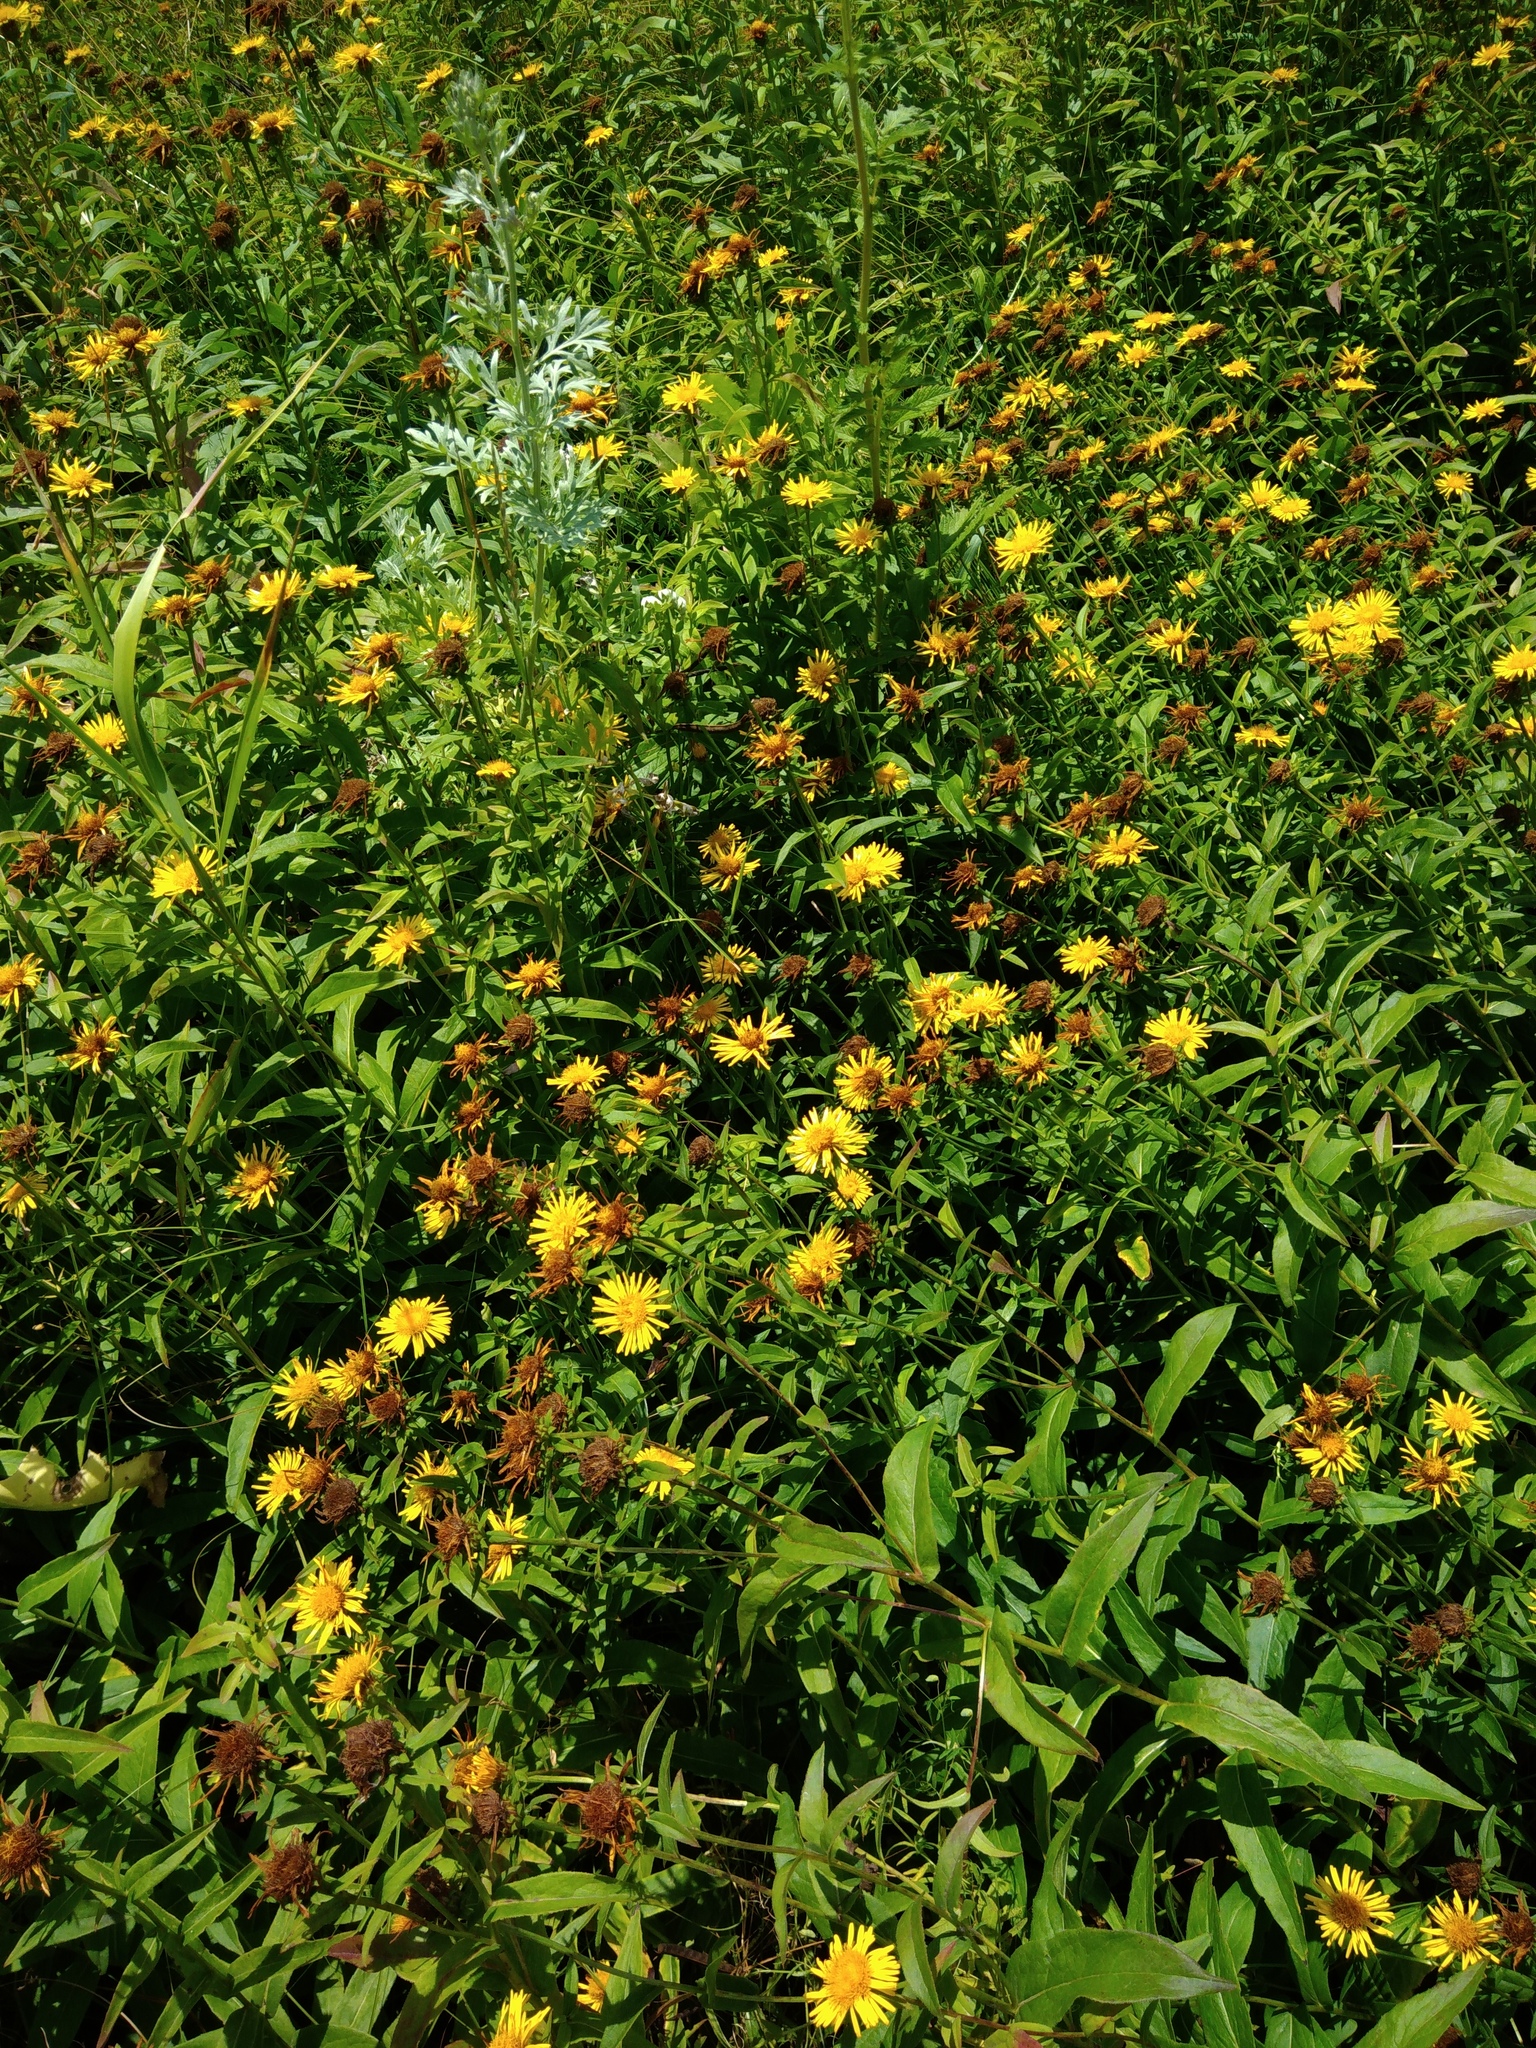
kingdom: Plantae
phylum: Tracheophyta
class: Magnoliopsida
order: Asterales
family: Asteraceae
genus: Pentanema
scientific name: Pentanema salicinum
